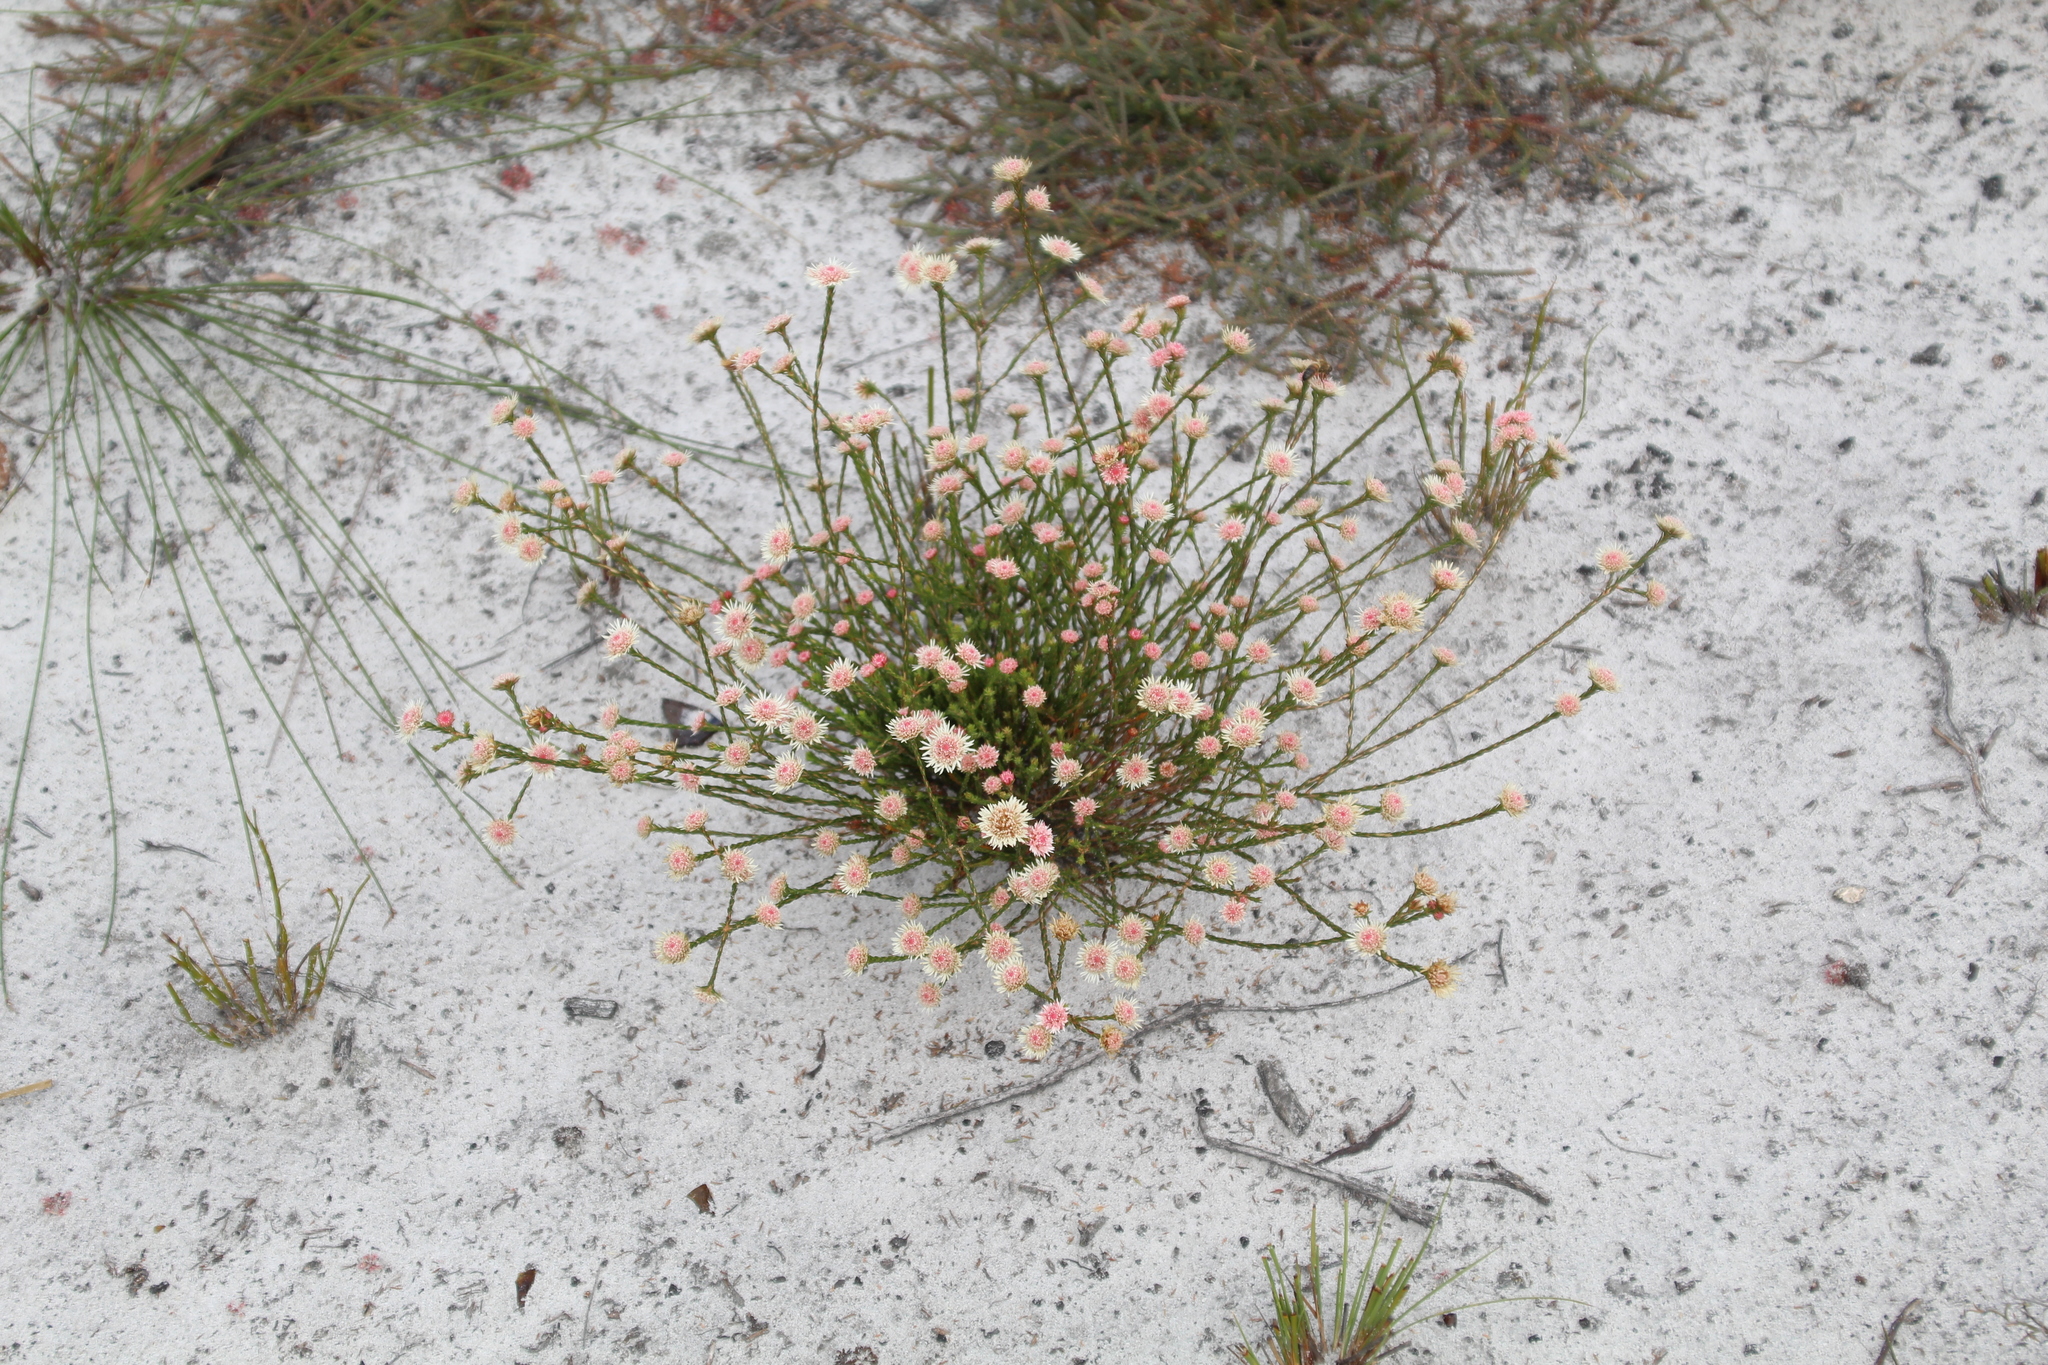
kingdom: Plantae
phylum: Tracheophyta
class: Magnoliopsida
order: Myrtales
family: Myrtaceae
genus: Actinodium
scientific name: Actinodium cunninghamii
